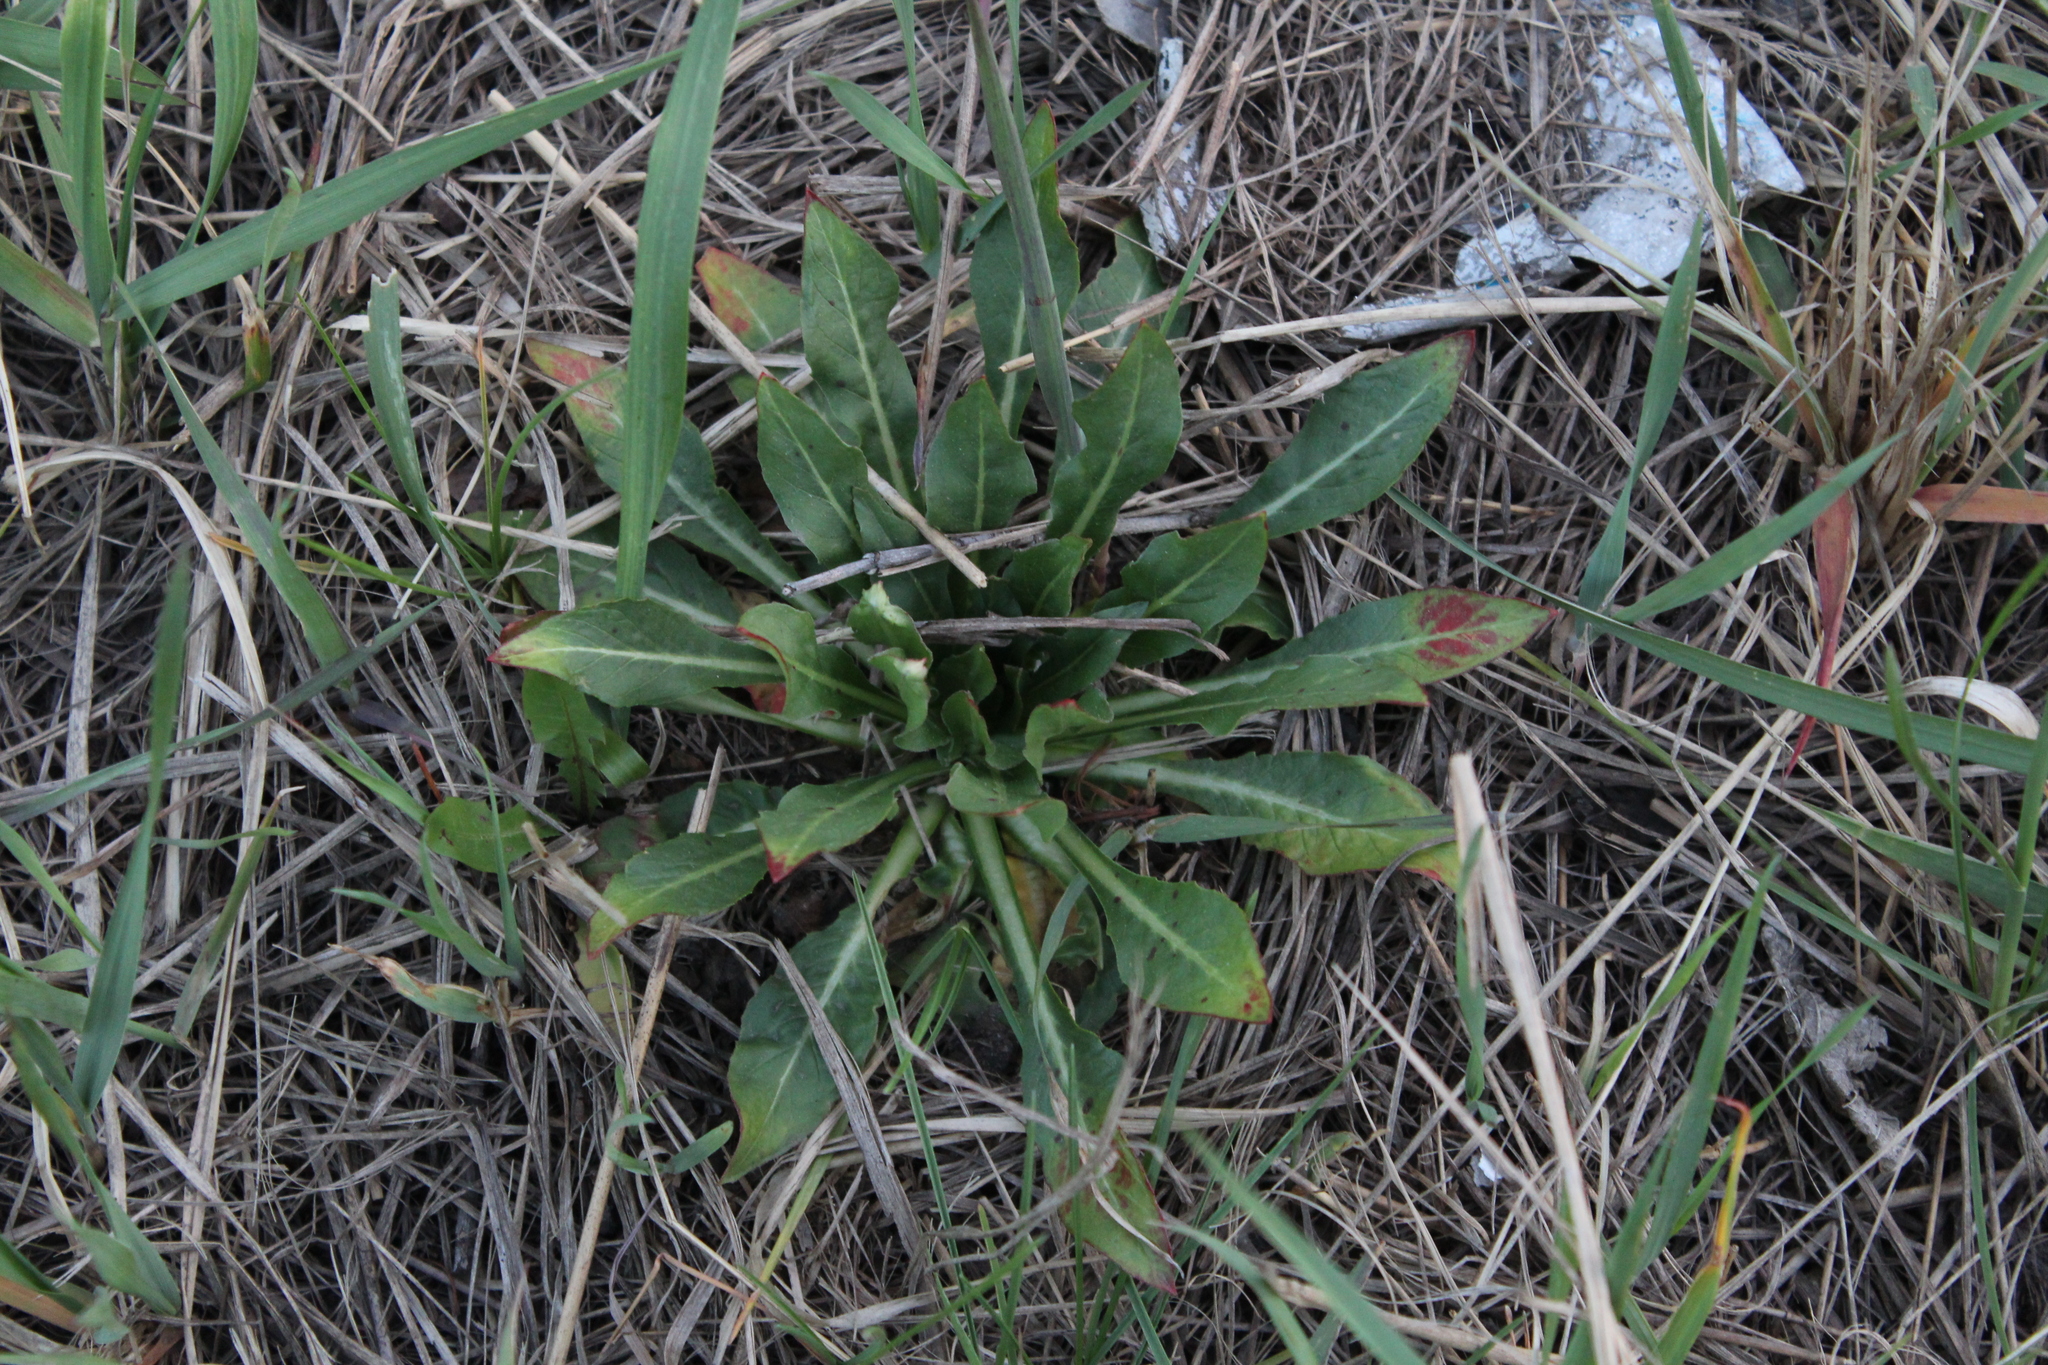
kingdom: Plantae
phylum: Tracheophyta
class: Magnoliopsida
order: Myrtales
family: Onagraceae
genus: Oenothera
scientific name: Oenothera
